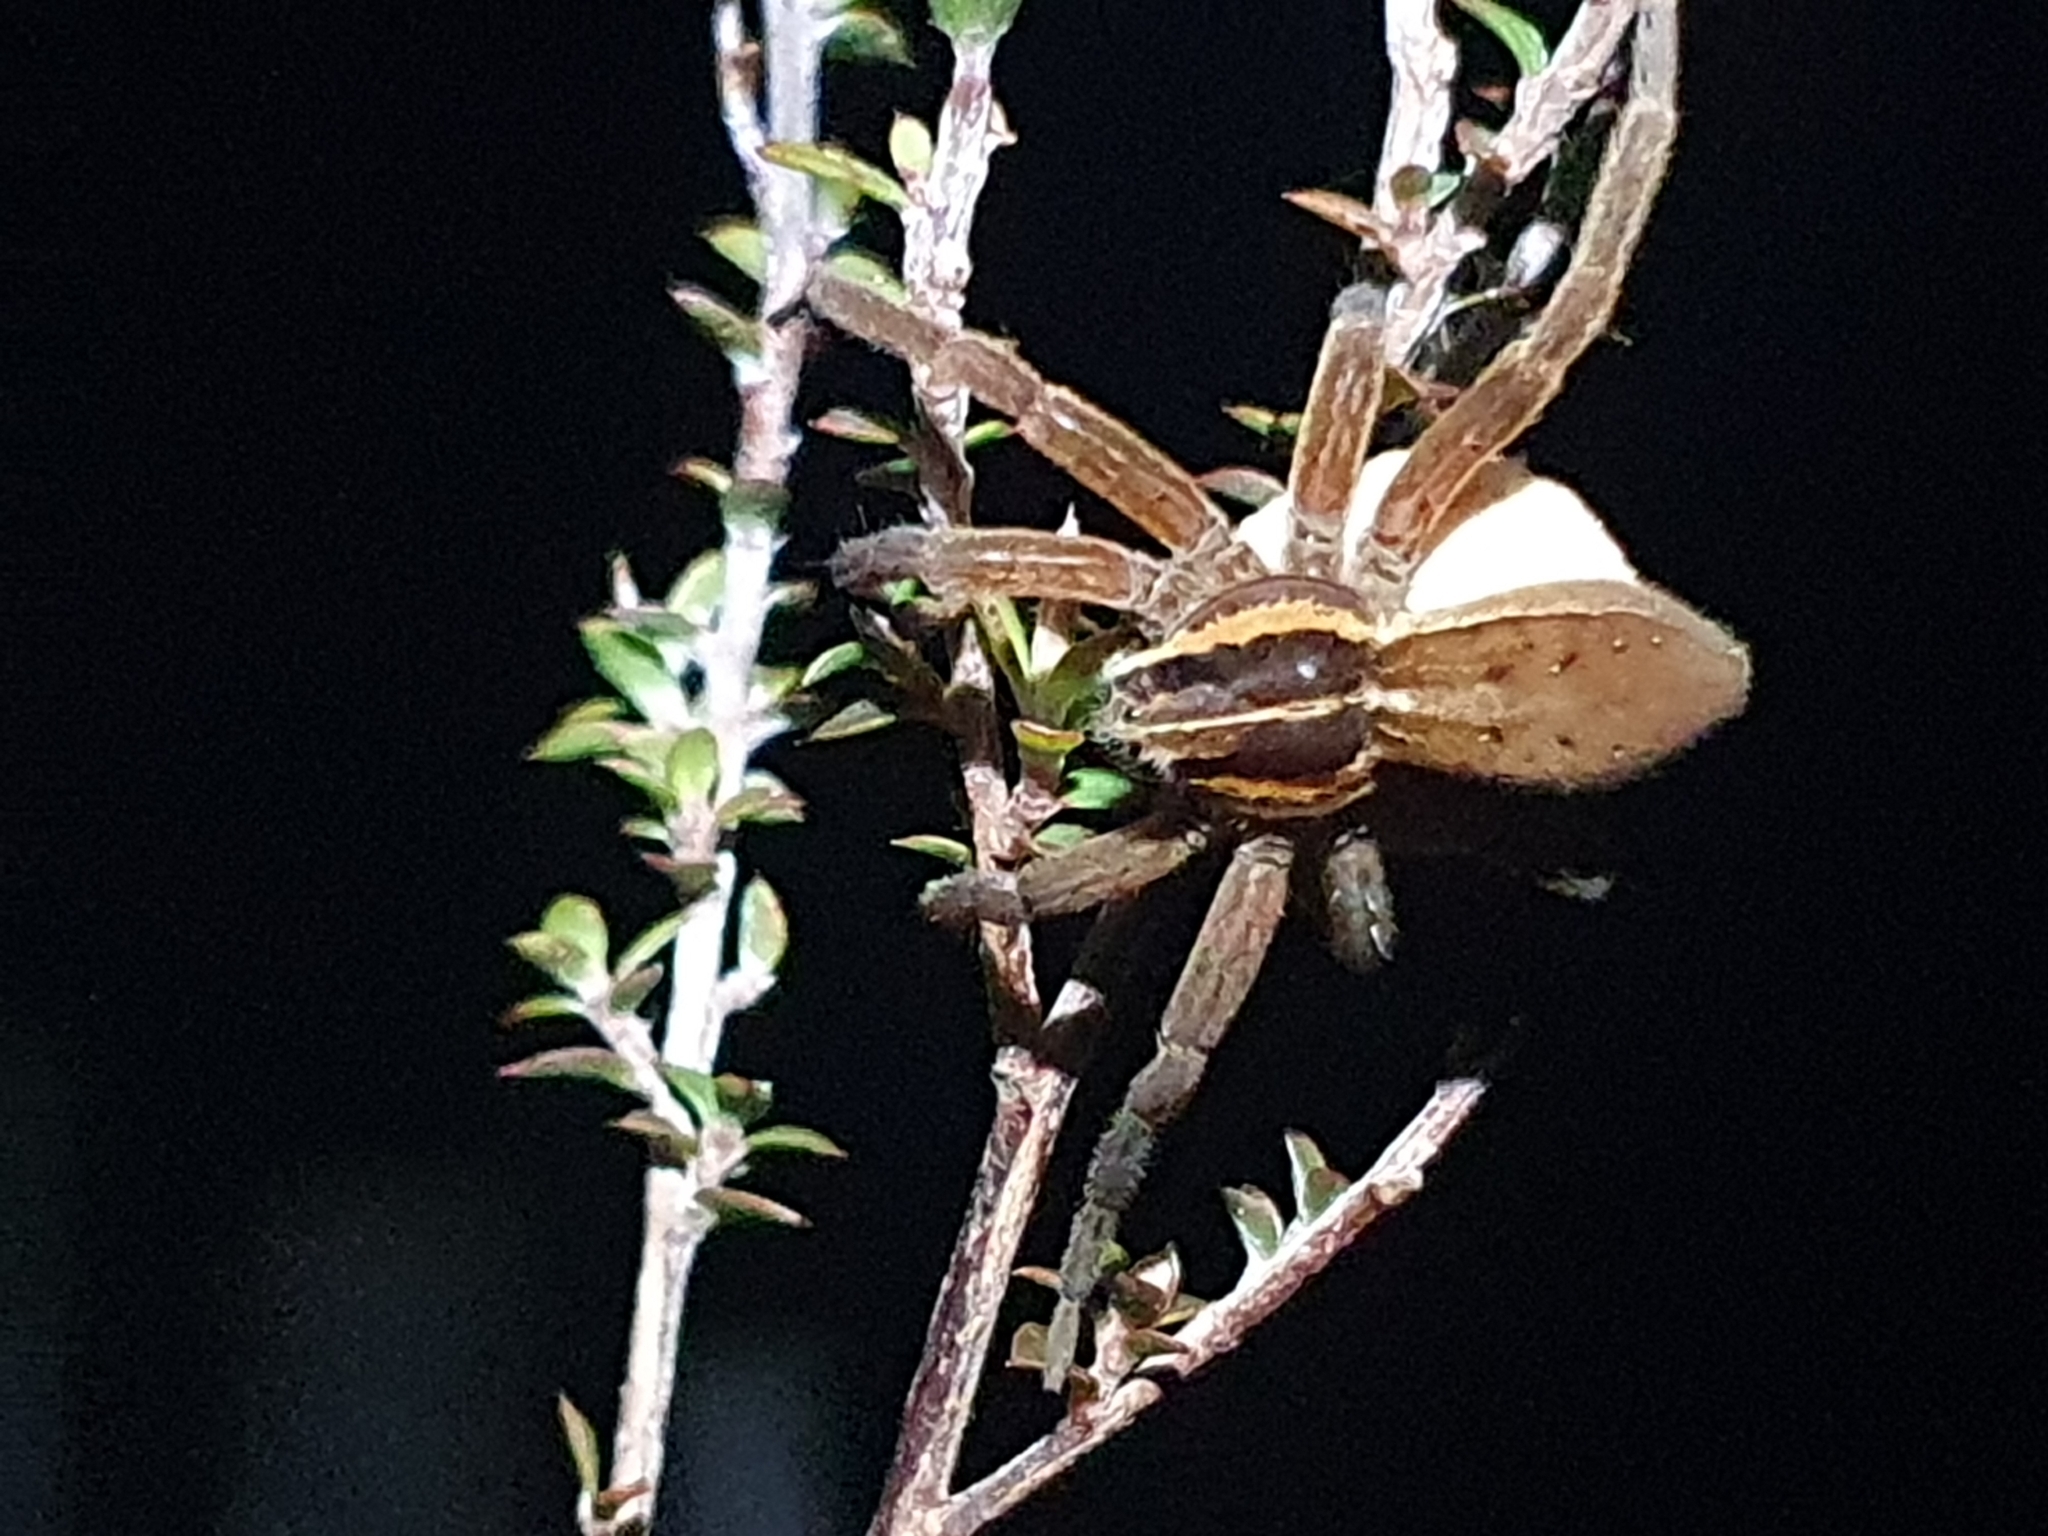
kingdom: Animalia
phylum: Arthropoda
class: Arachnida
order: Araneae
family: Pisauridae
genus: Dolomedes
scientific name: Dolomedes minor
